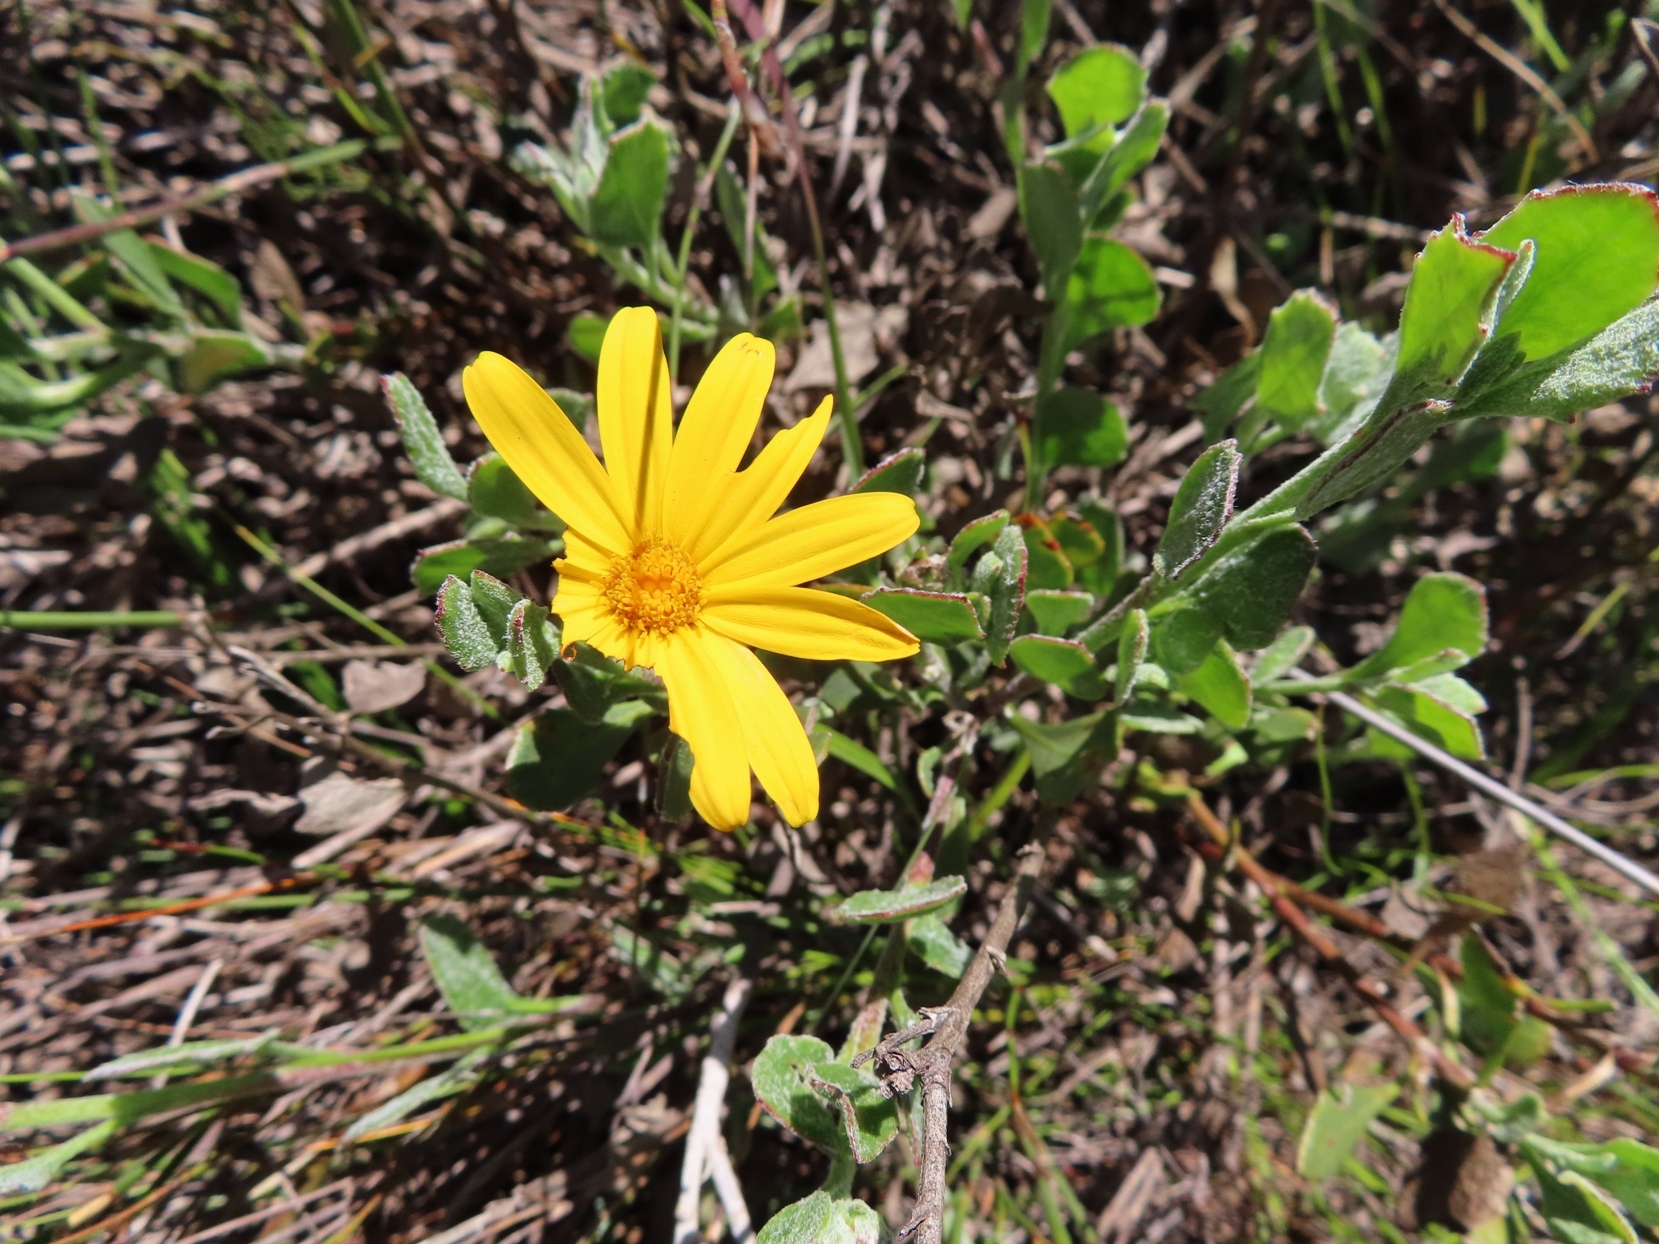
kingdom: Plantae
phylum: Tracheophyta
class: Magnoliopsida
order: Asterales
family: Asteraceae
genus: Osteospermum
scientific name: Osteospermum potbergense
